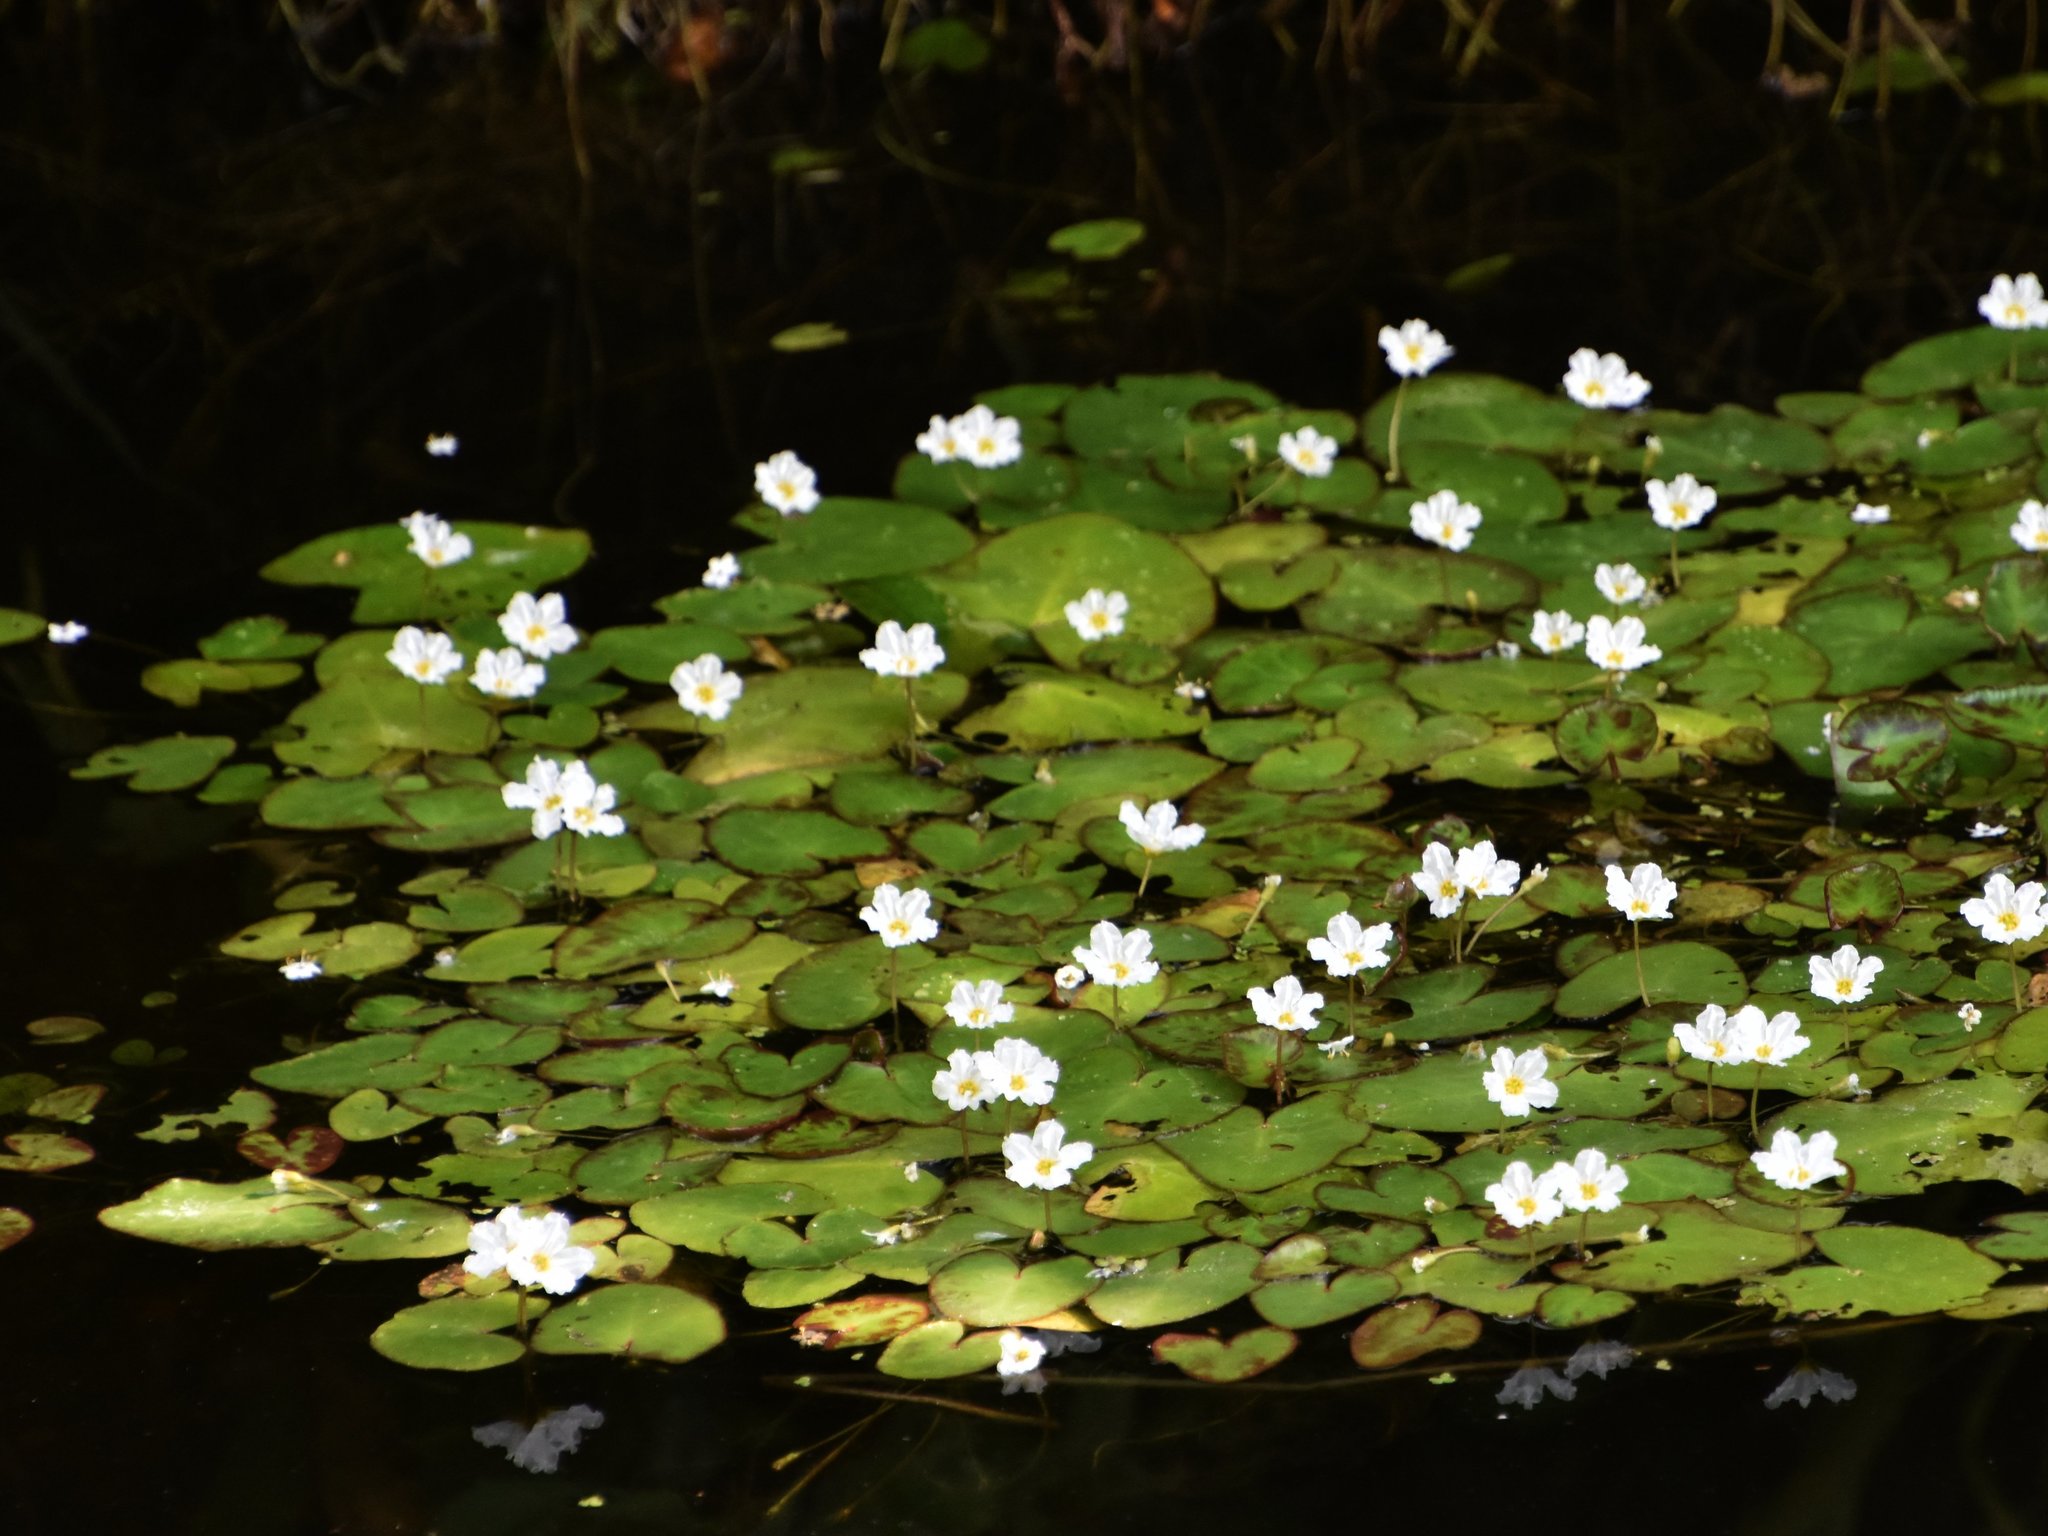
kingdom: Plantae
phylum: Tracheophyta
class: Magnoliopsida
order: Asterales
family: Menyanthaceae
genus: Nymphoides
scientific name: Nymphoides hydrophylla
